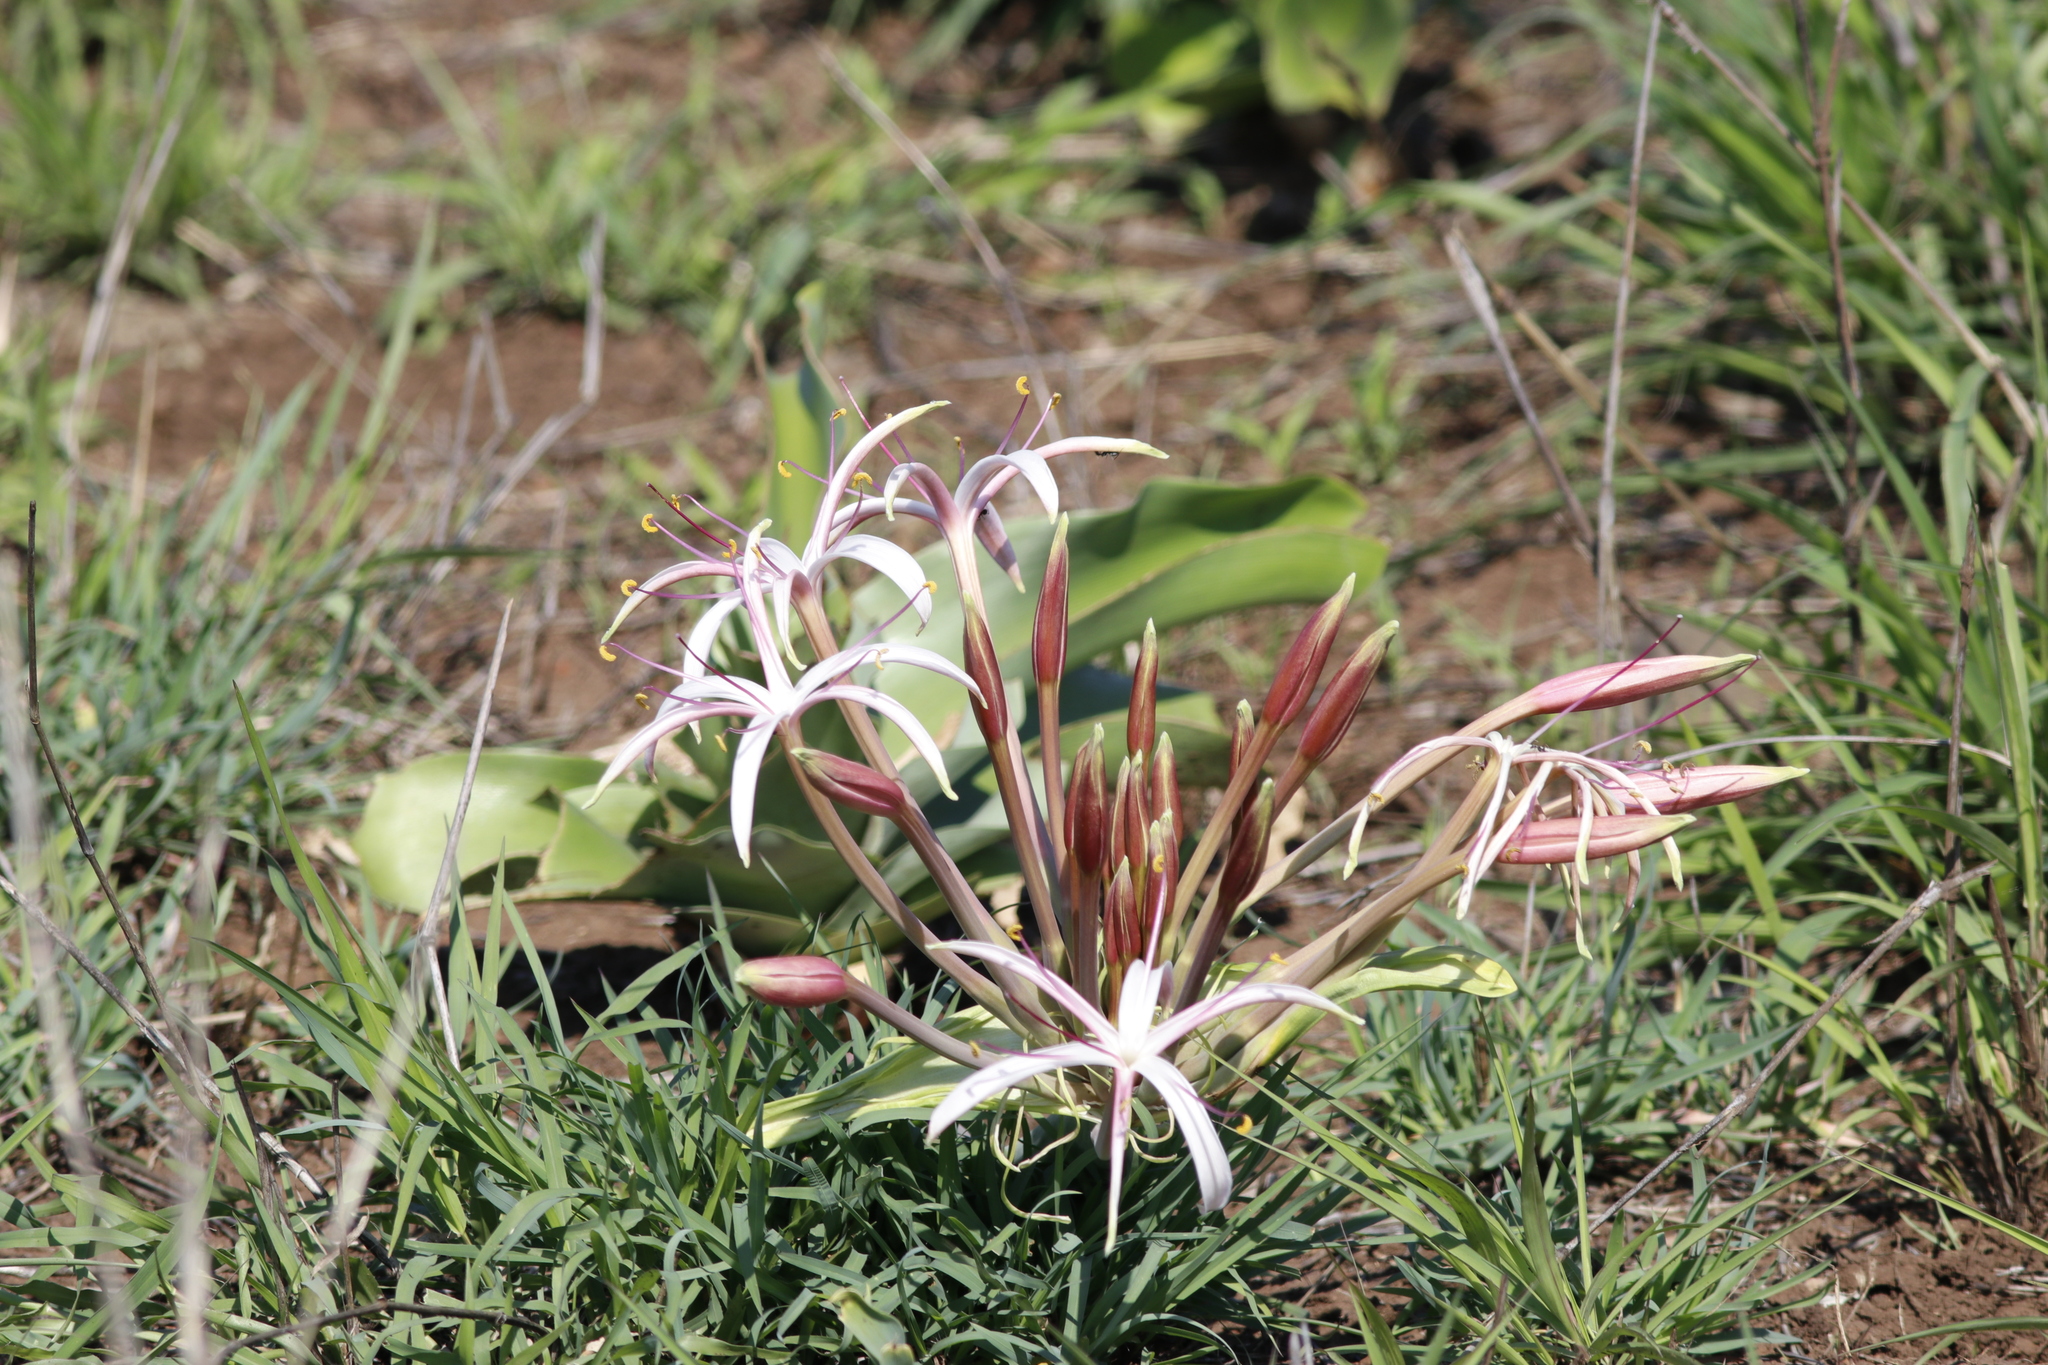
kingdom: Plantae
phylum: Tracheophyta
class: Liliopsida
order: Asparagales
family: Amaryllidaceae
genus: Crinum
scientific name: Crinum buphanoides
